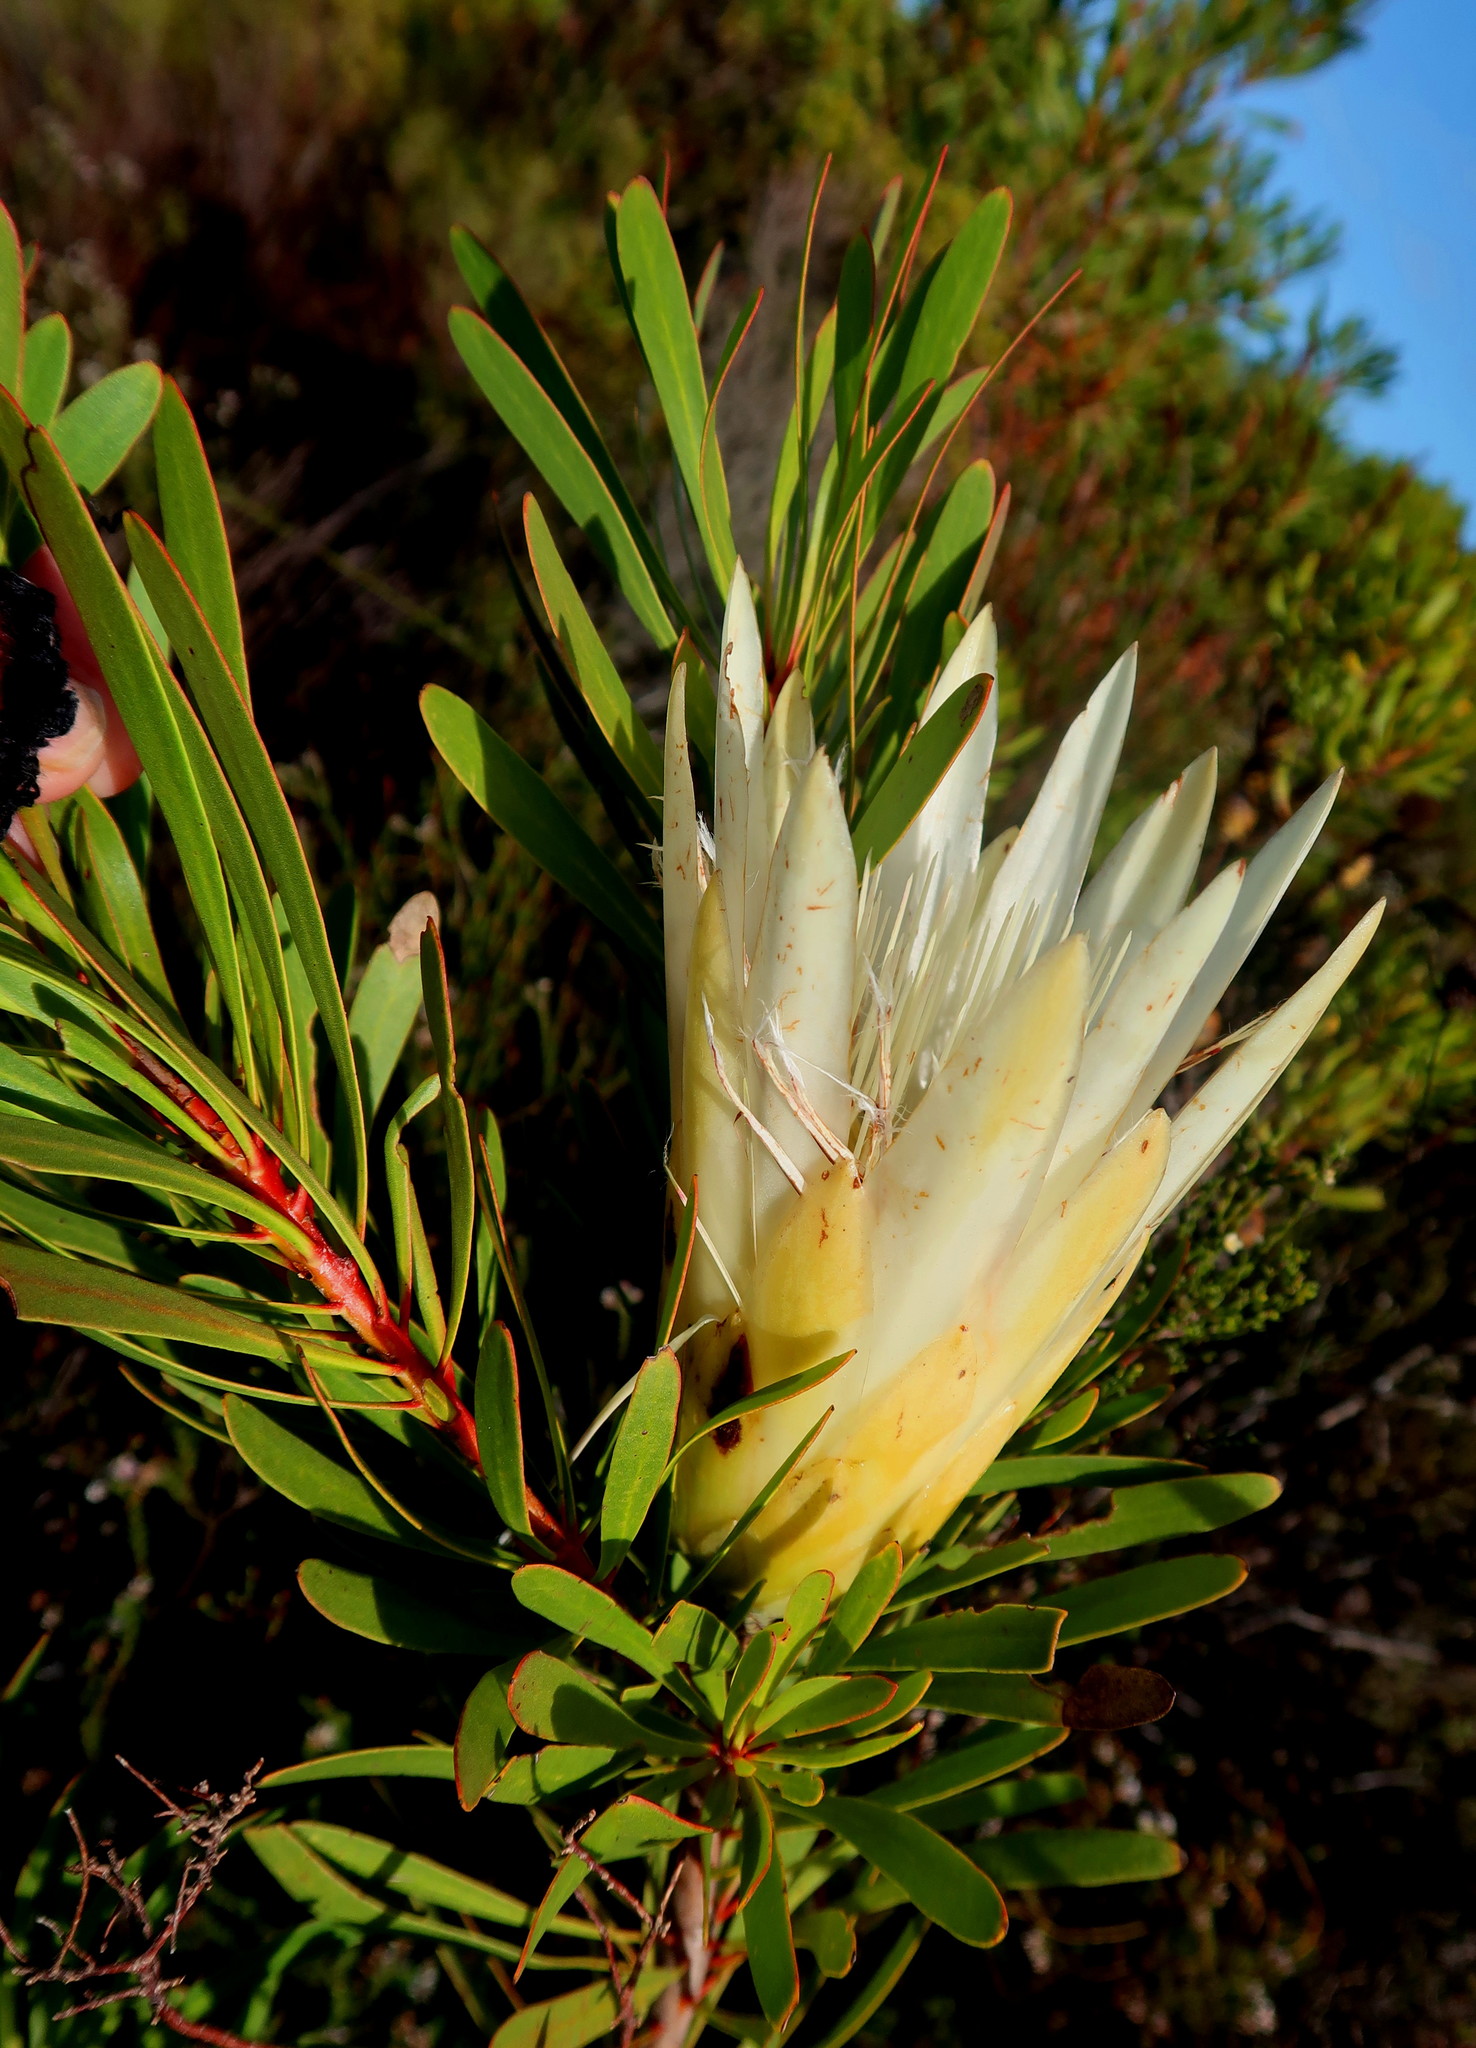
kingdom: Plantae
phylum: Tracheophyta
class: Magnoliopsida
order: Proteales
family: Proteaceae
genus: Protea
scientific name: Protea repens
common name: Sugarbush
